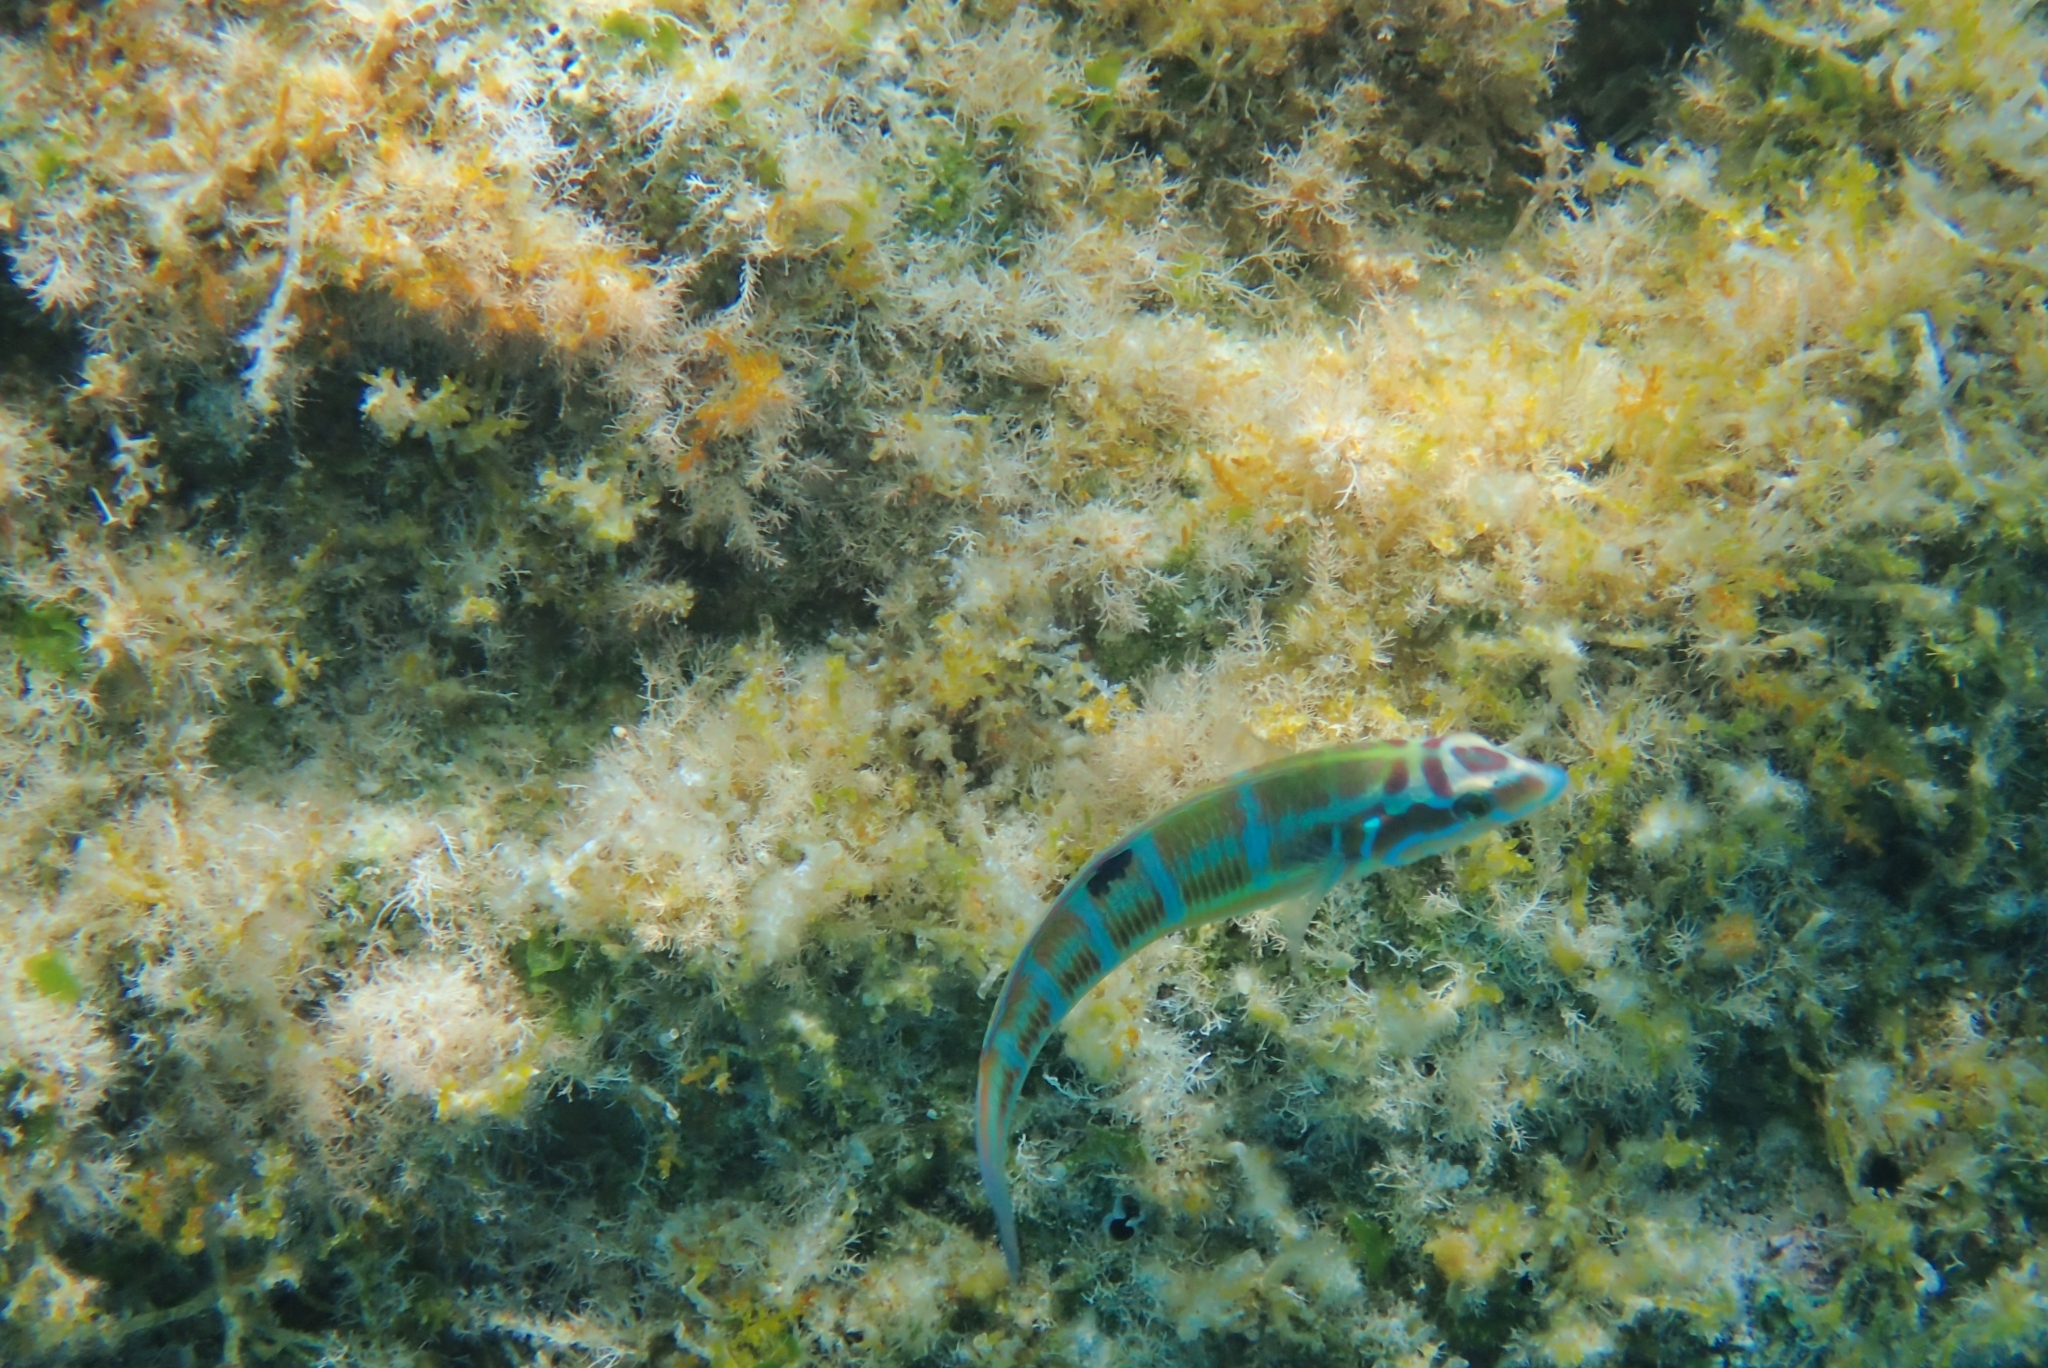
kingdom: Animalia
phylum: Chordata
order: Perciformes
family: Labridae
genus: Thalassoma
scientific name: Thalassoma pavo
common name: Ornate wrasse
